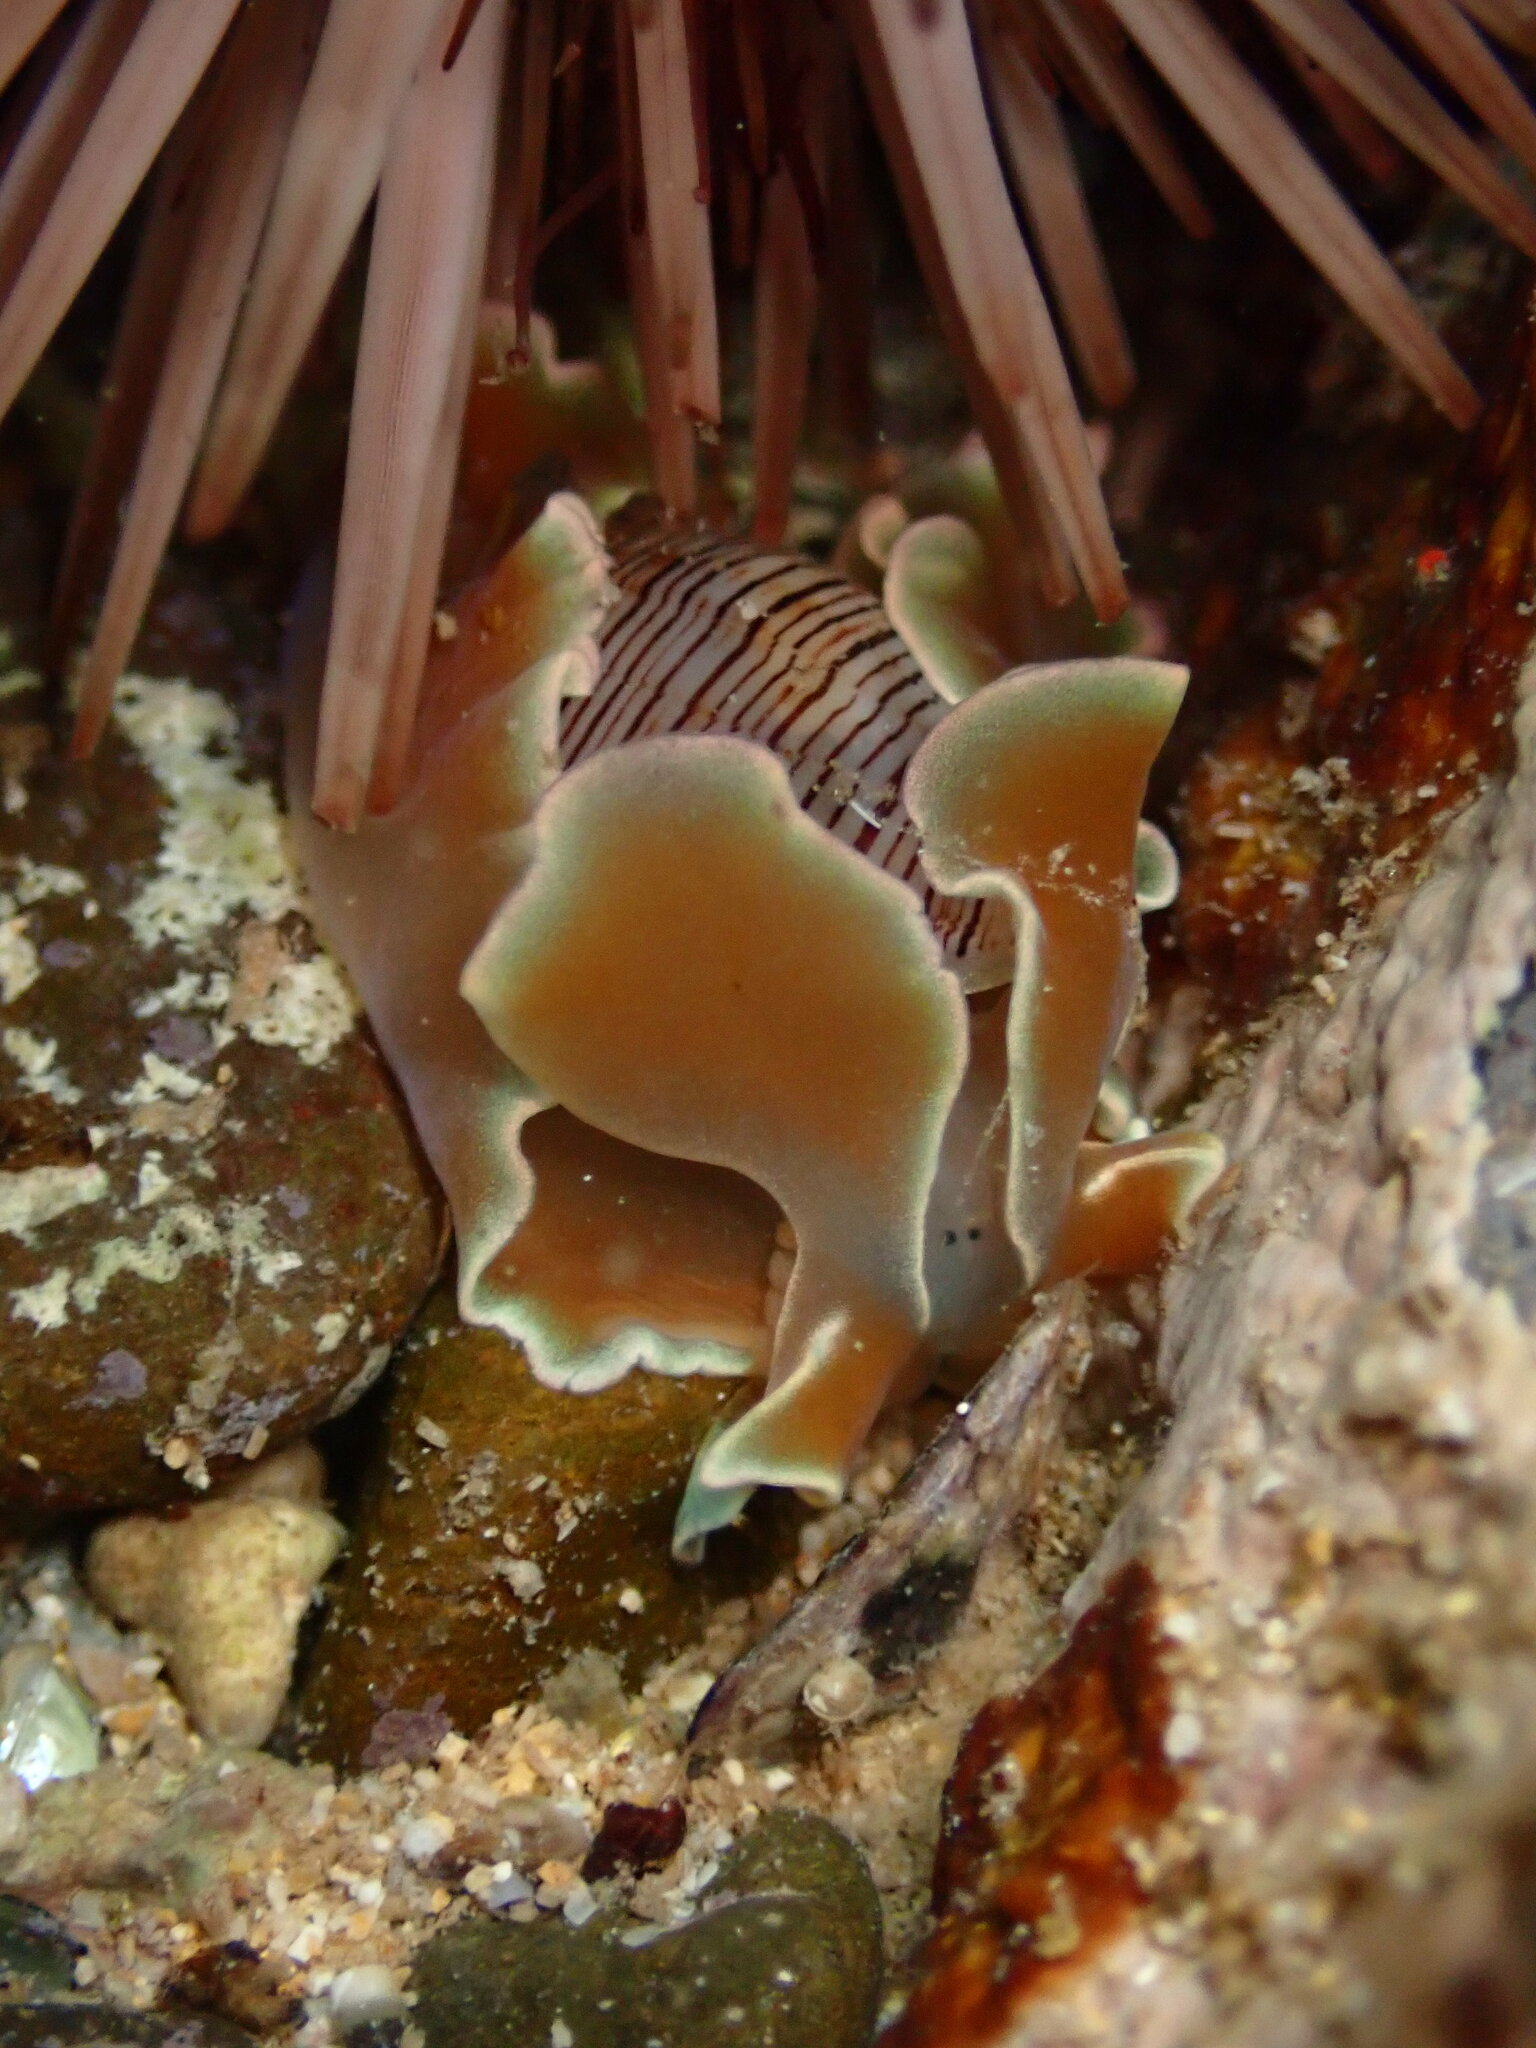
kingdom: Animalia
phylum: Mollusca
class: Gastropoda
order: Cephalaspidea
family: Aplustridae
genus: Hydatina
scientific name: Hydatina physis
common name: Brown-line paperbubble
